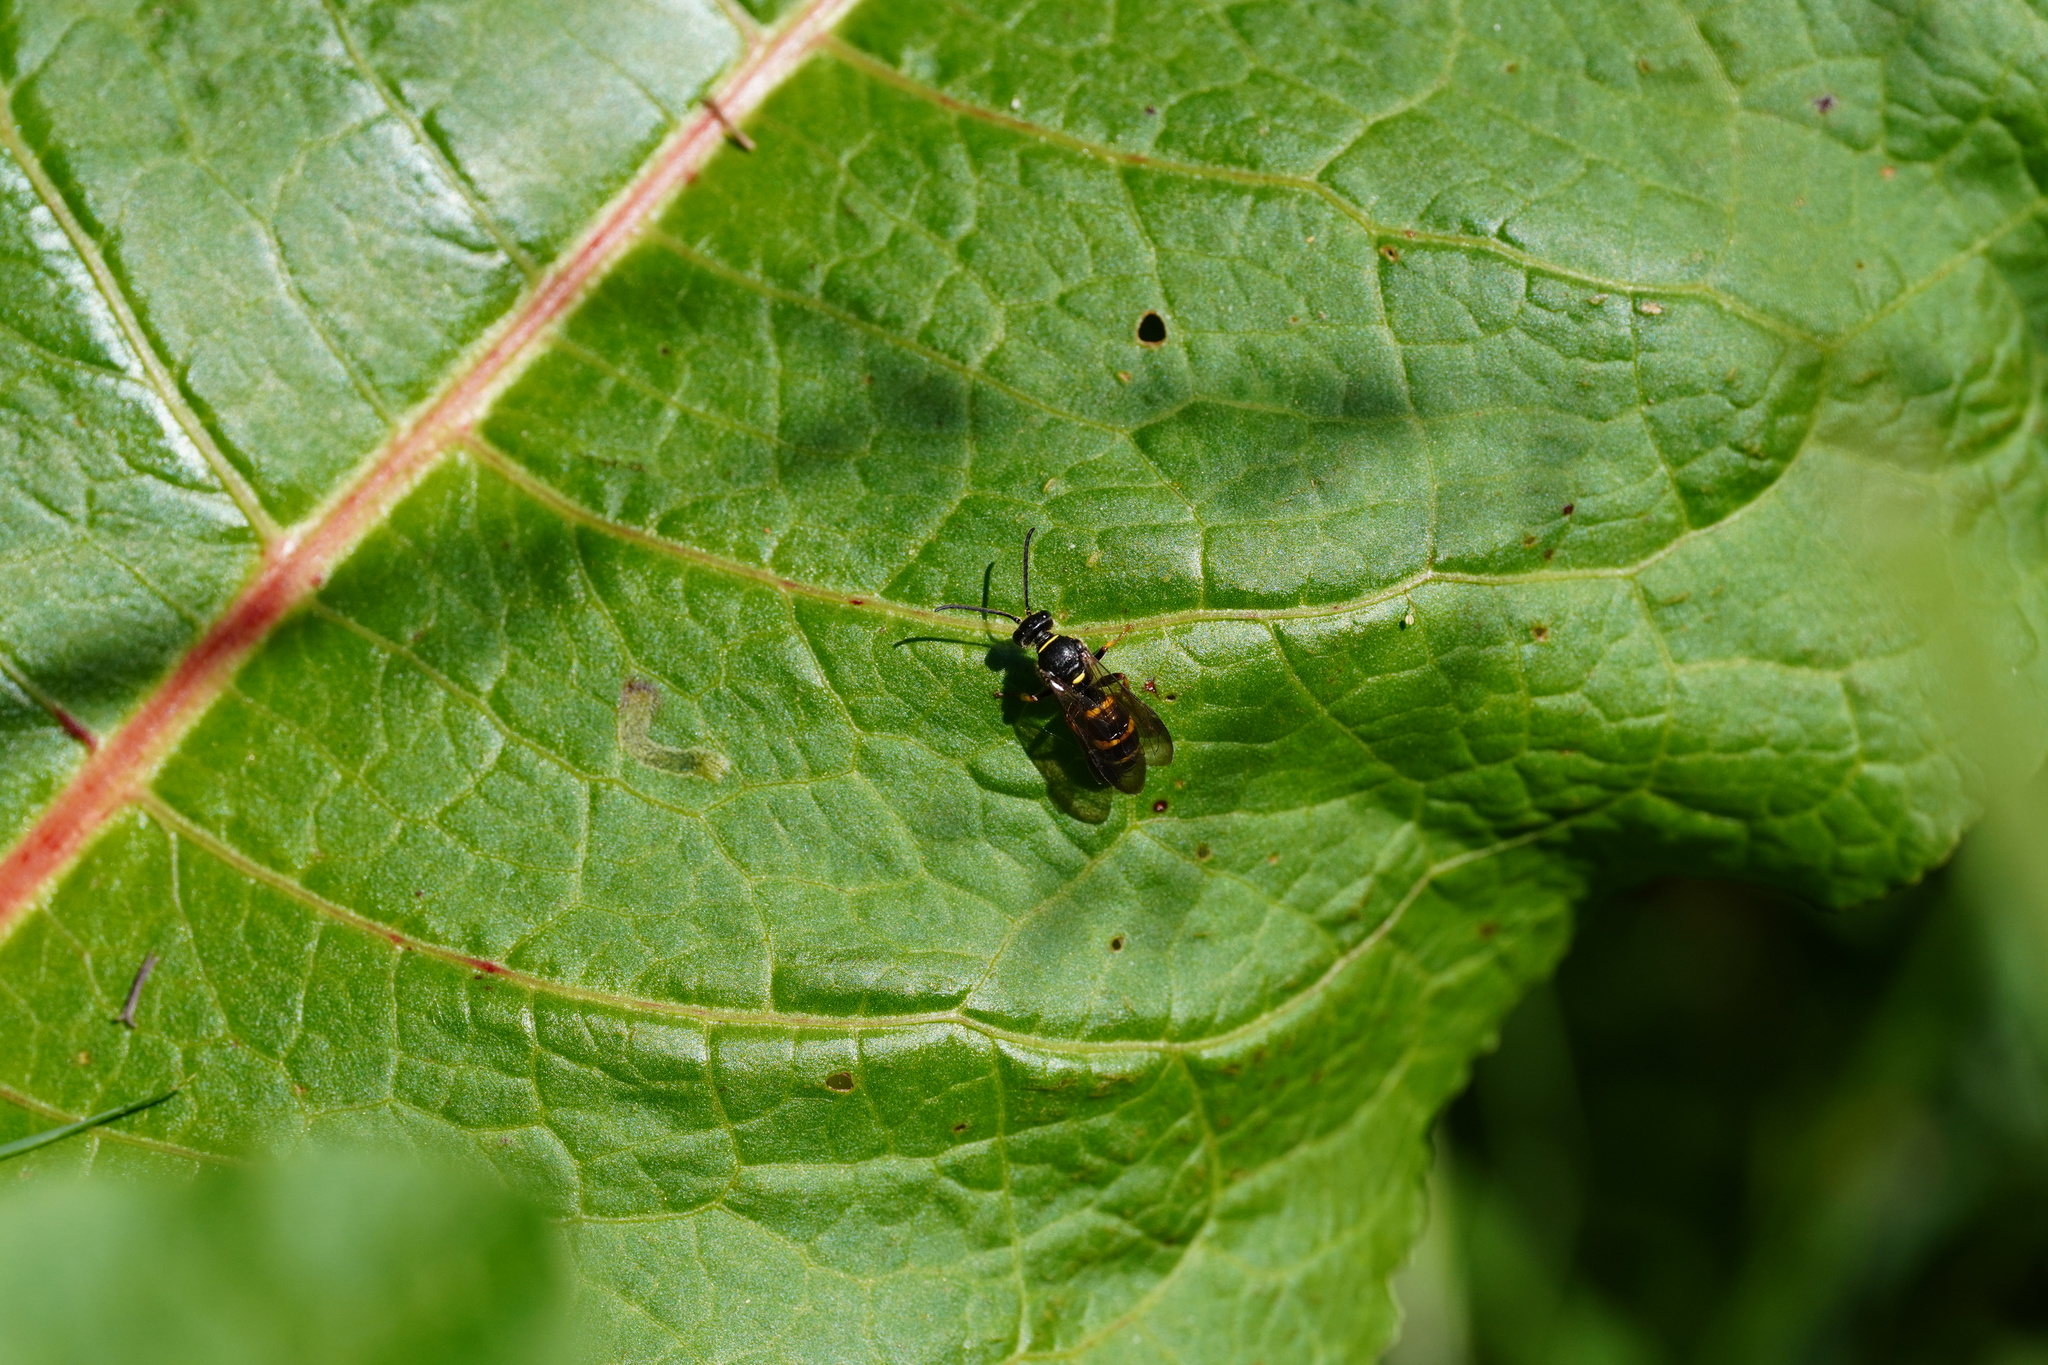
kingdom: Animalia
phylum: Arthropoda
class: Insecta
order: Hymenoptera
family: Crabronidae
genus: Argogorytes
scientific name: Argogorytes mystaceus
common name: Field digger wasp
